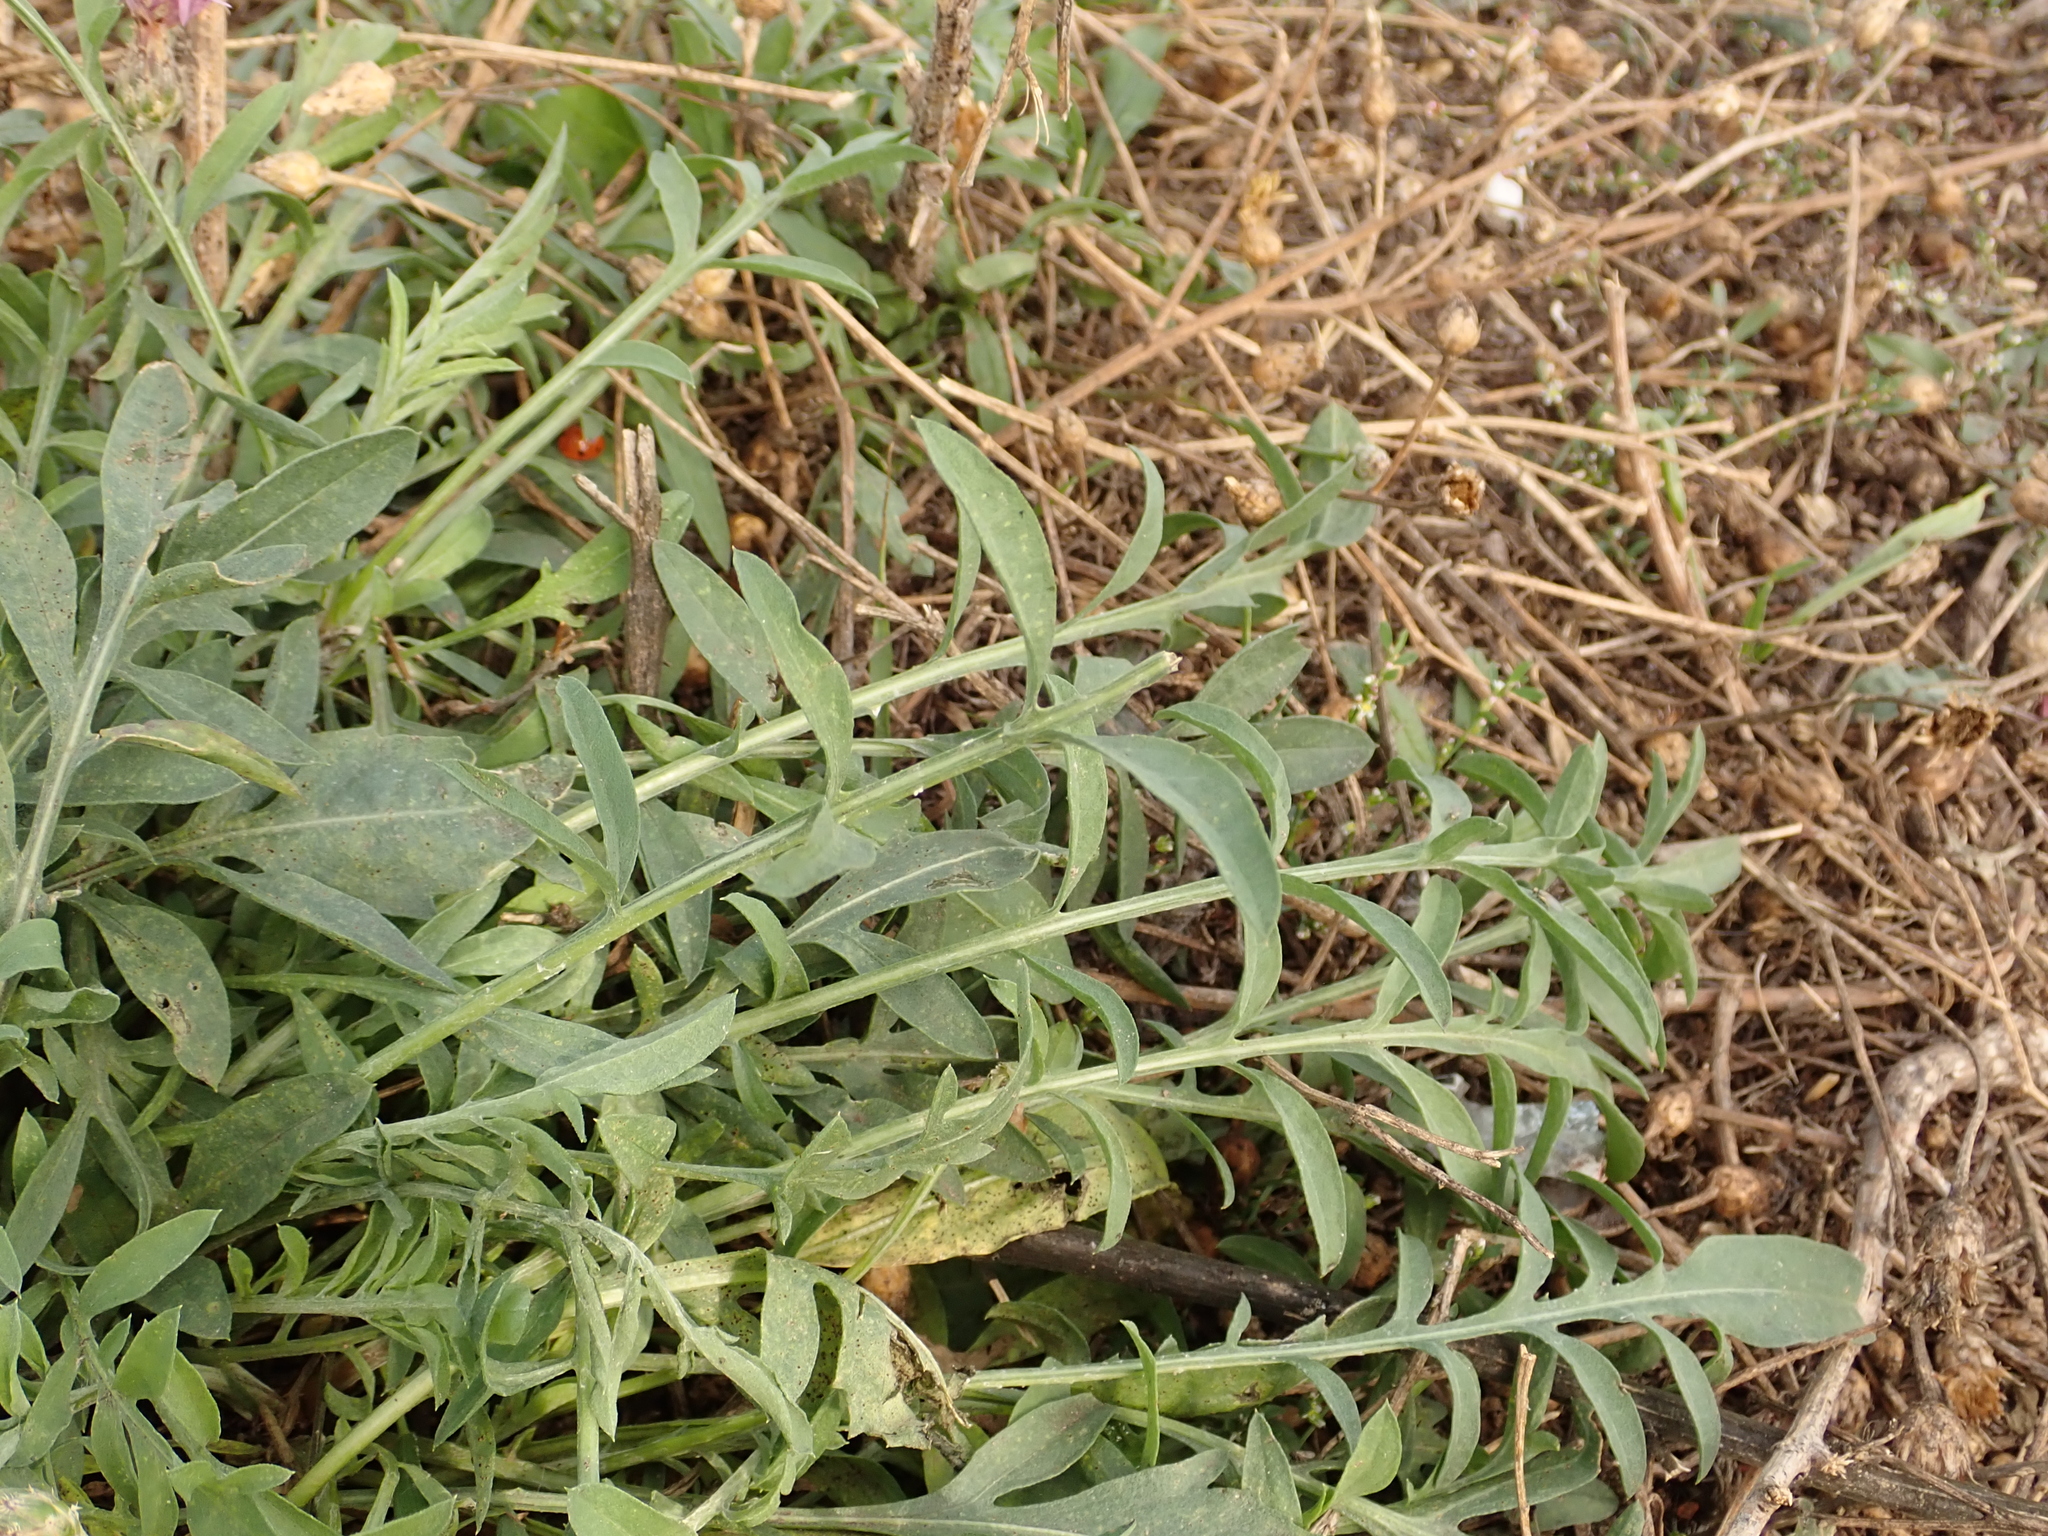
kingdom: Plantae
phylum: Tracheophyta
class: Magnoliopsida
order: Asterales
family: Asteraceae
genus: Centaurea
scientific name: Centaurea stoebe
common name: Spotted knapweed
